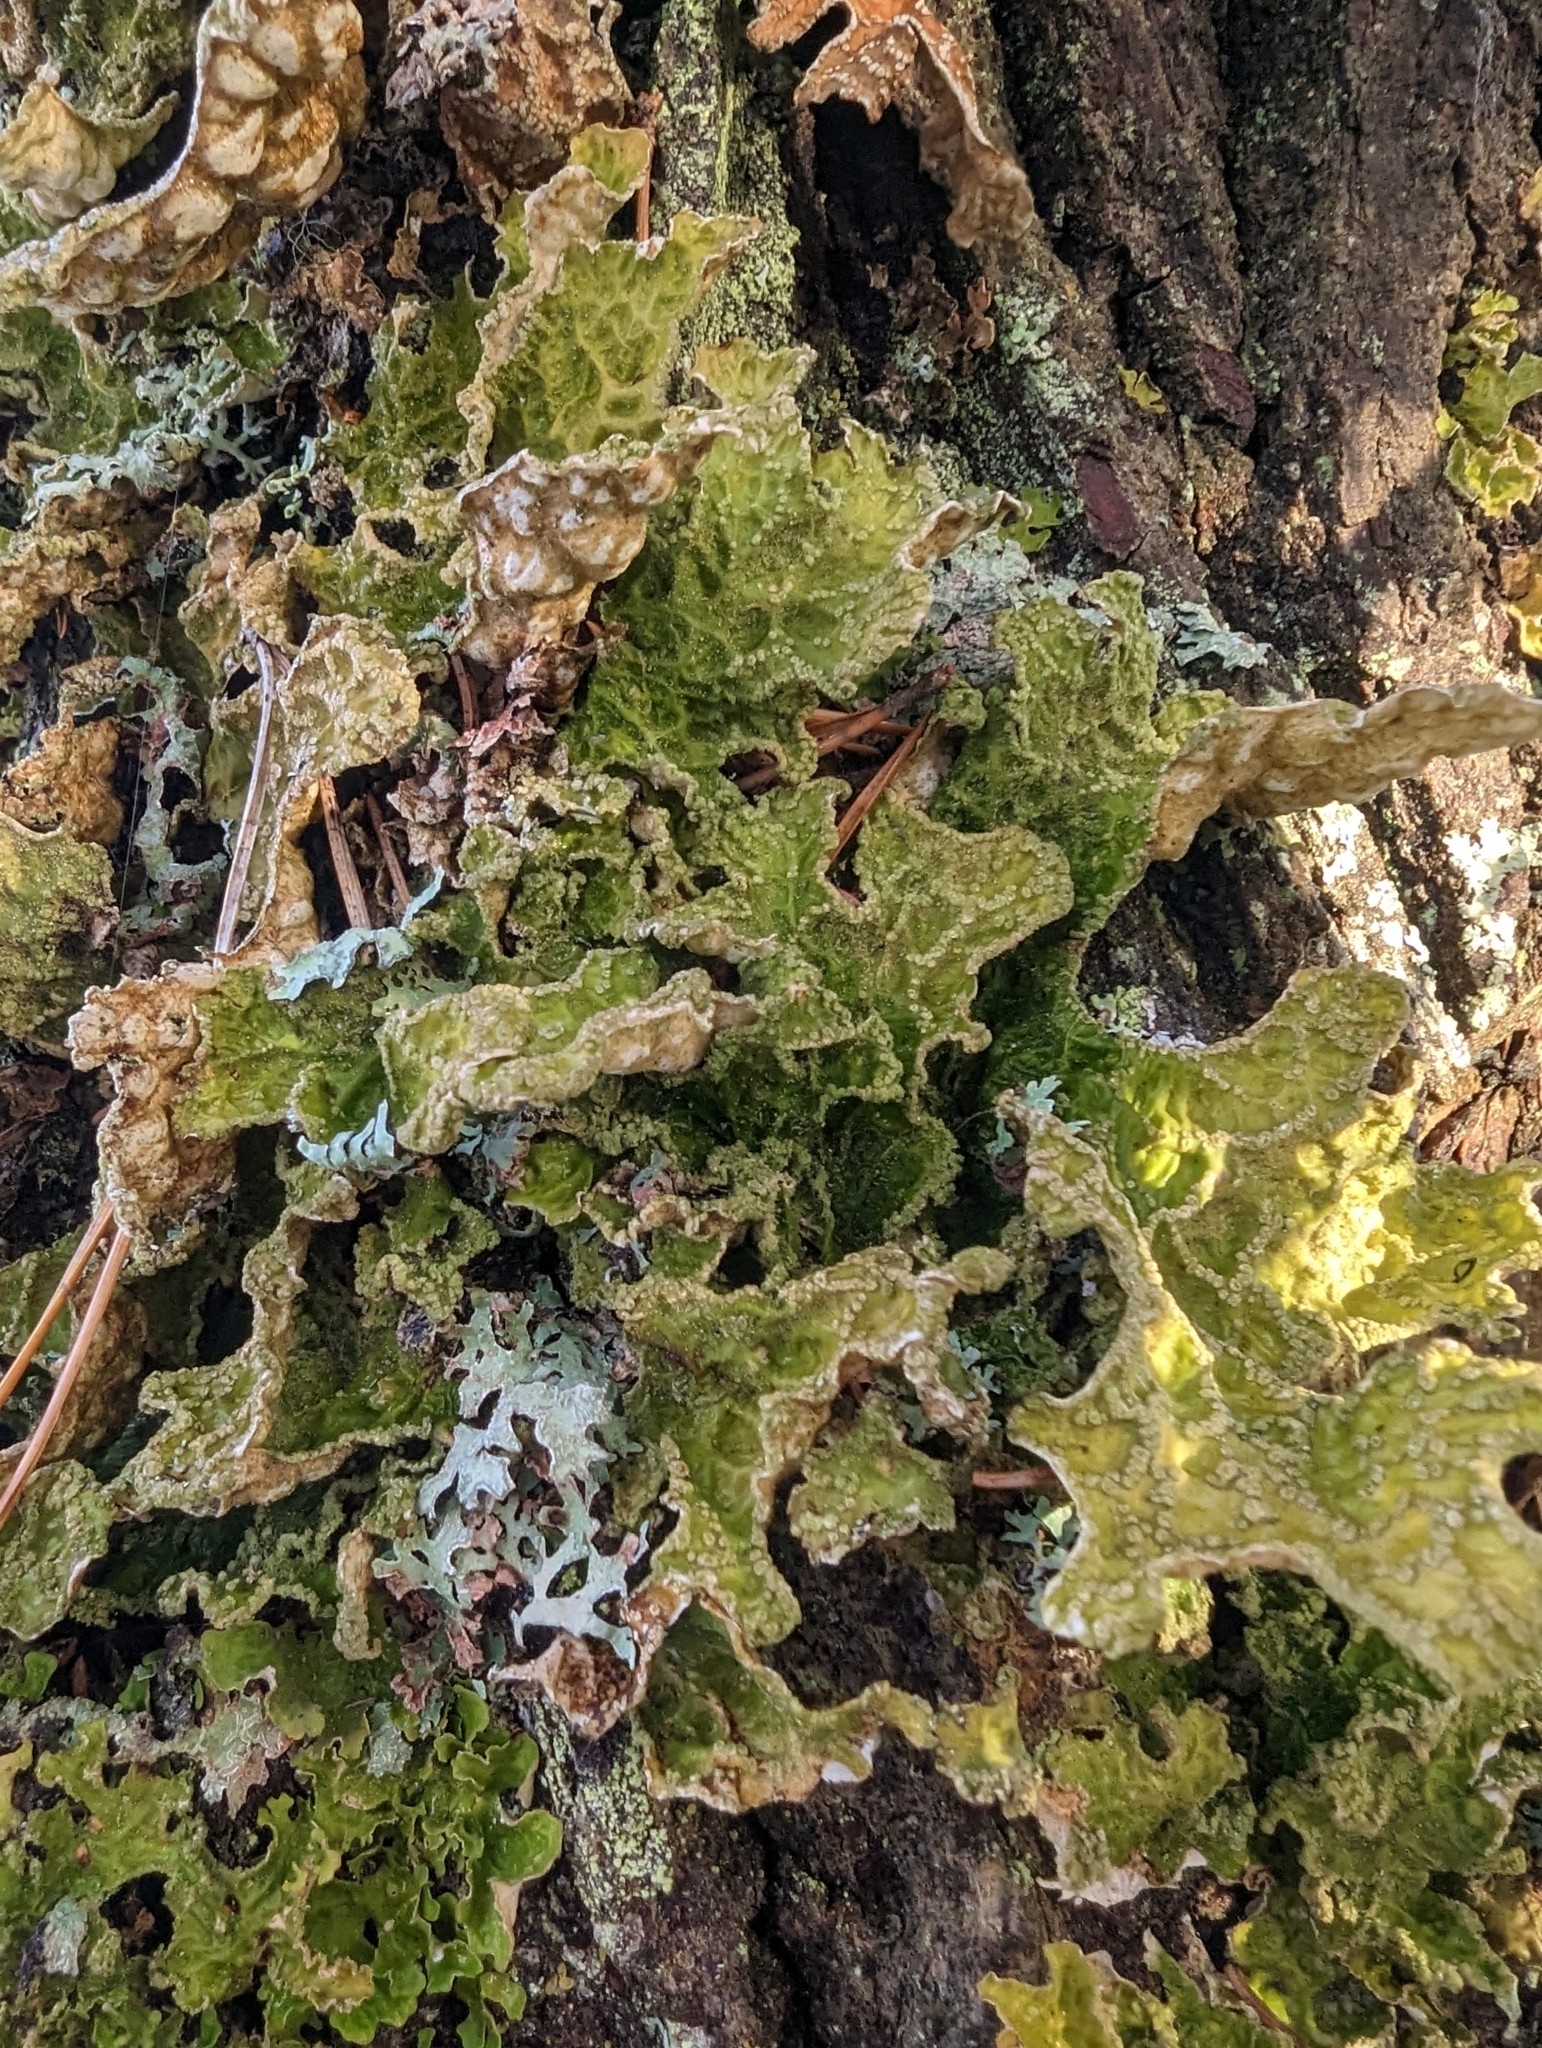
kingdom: Fungi
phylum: Ascomycota
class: Lecanoromycetes
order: Peltigerales
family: Lobariaceae
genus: Lobaria
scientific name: Lobaria pulmonaria
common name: Lungwort
